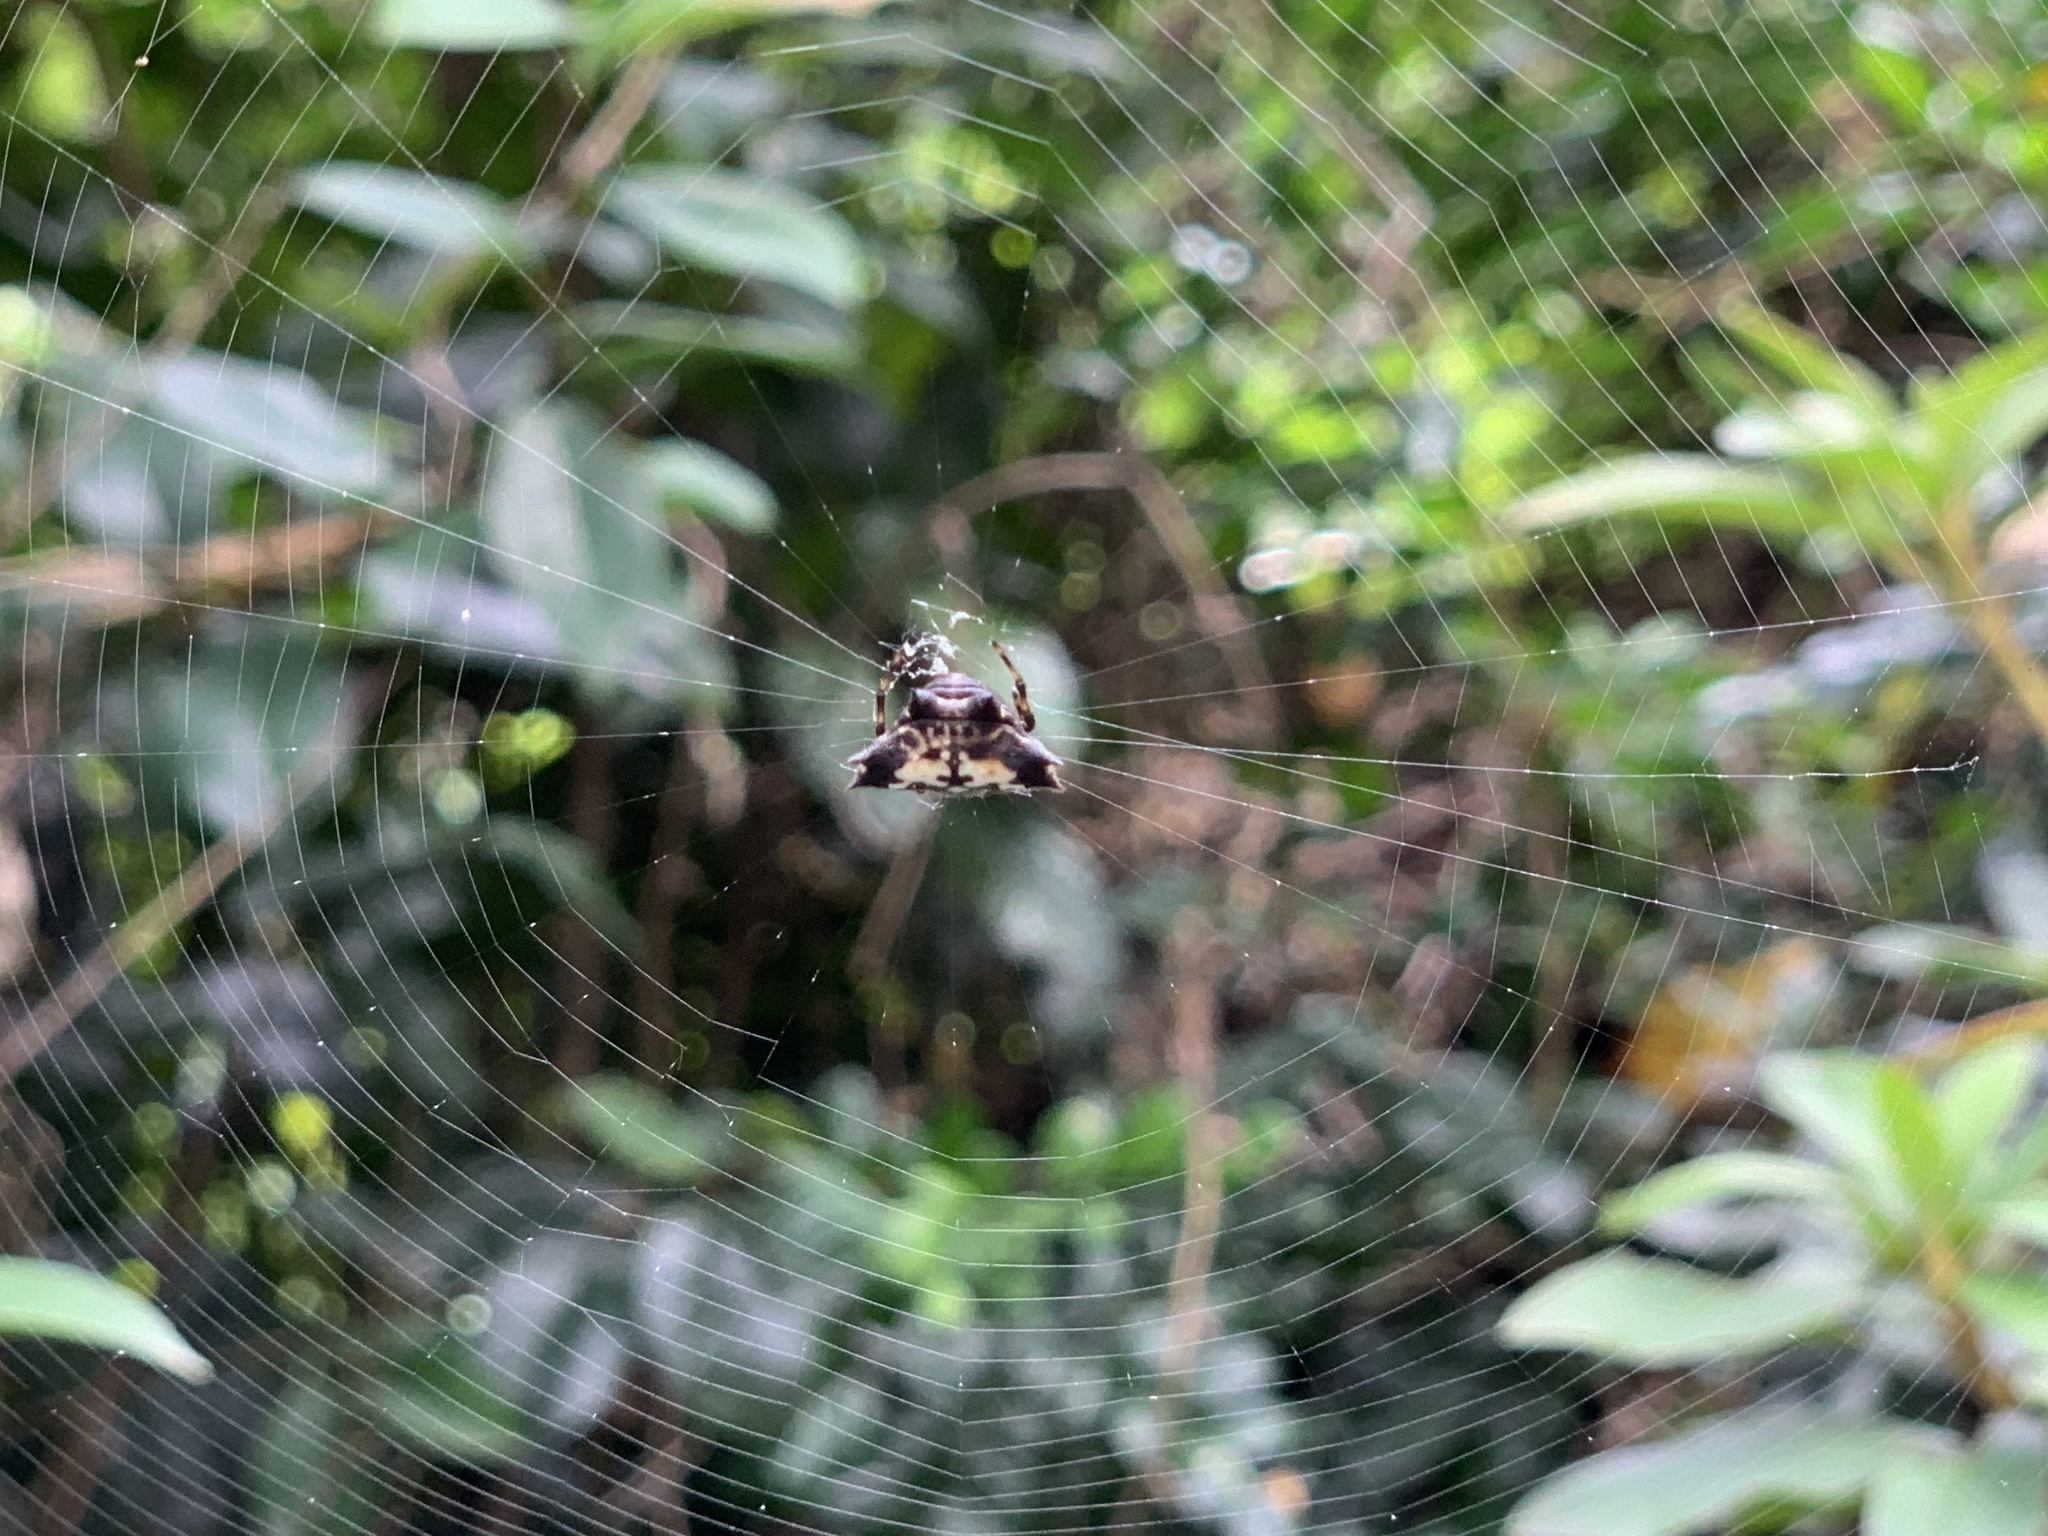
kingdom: Animalia
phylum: Arthropoda
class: Arachnida
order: Araneae
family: Araneidae
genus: Gasteracantha
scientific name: Gasteracantha kuhli
